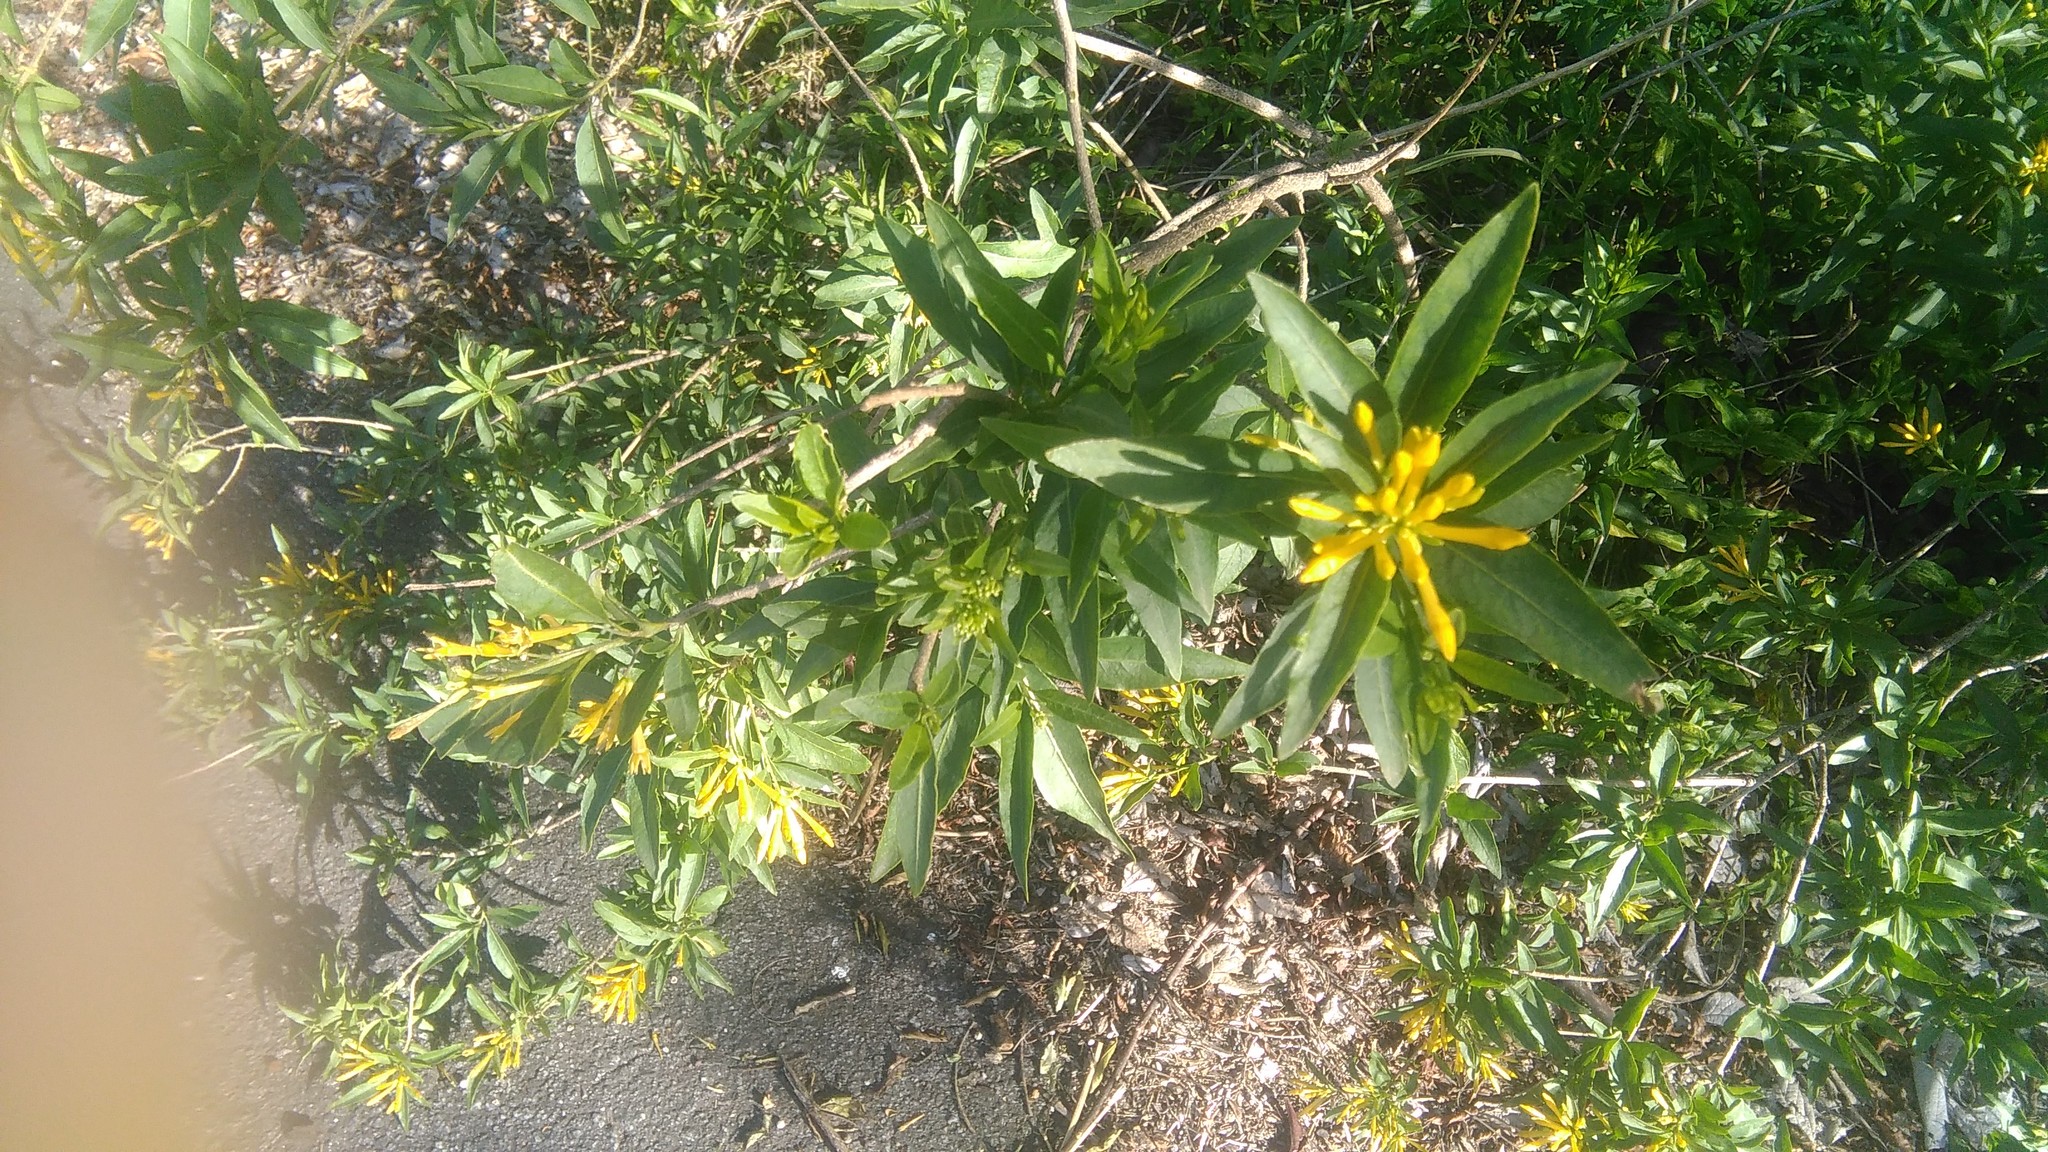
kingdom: Plantae
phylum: Tracheophyta
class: Magnoliopsida
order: Solanales
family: Solanaceae
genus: Cestrum
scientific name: Cestrum parqui
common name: Chilean cestrum
